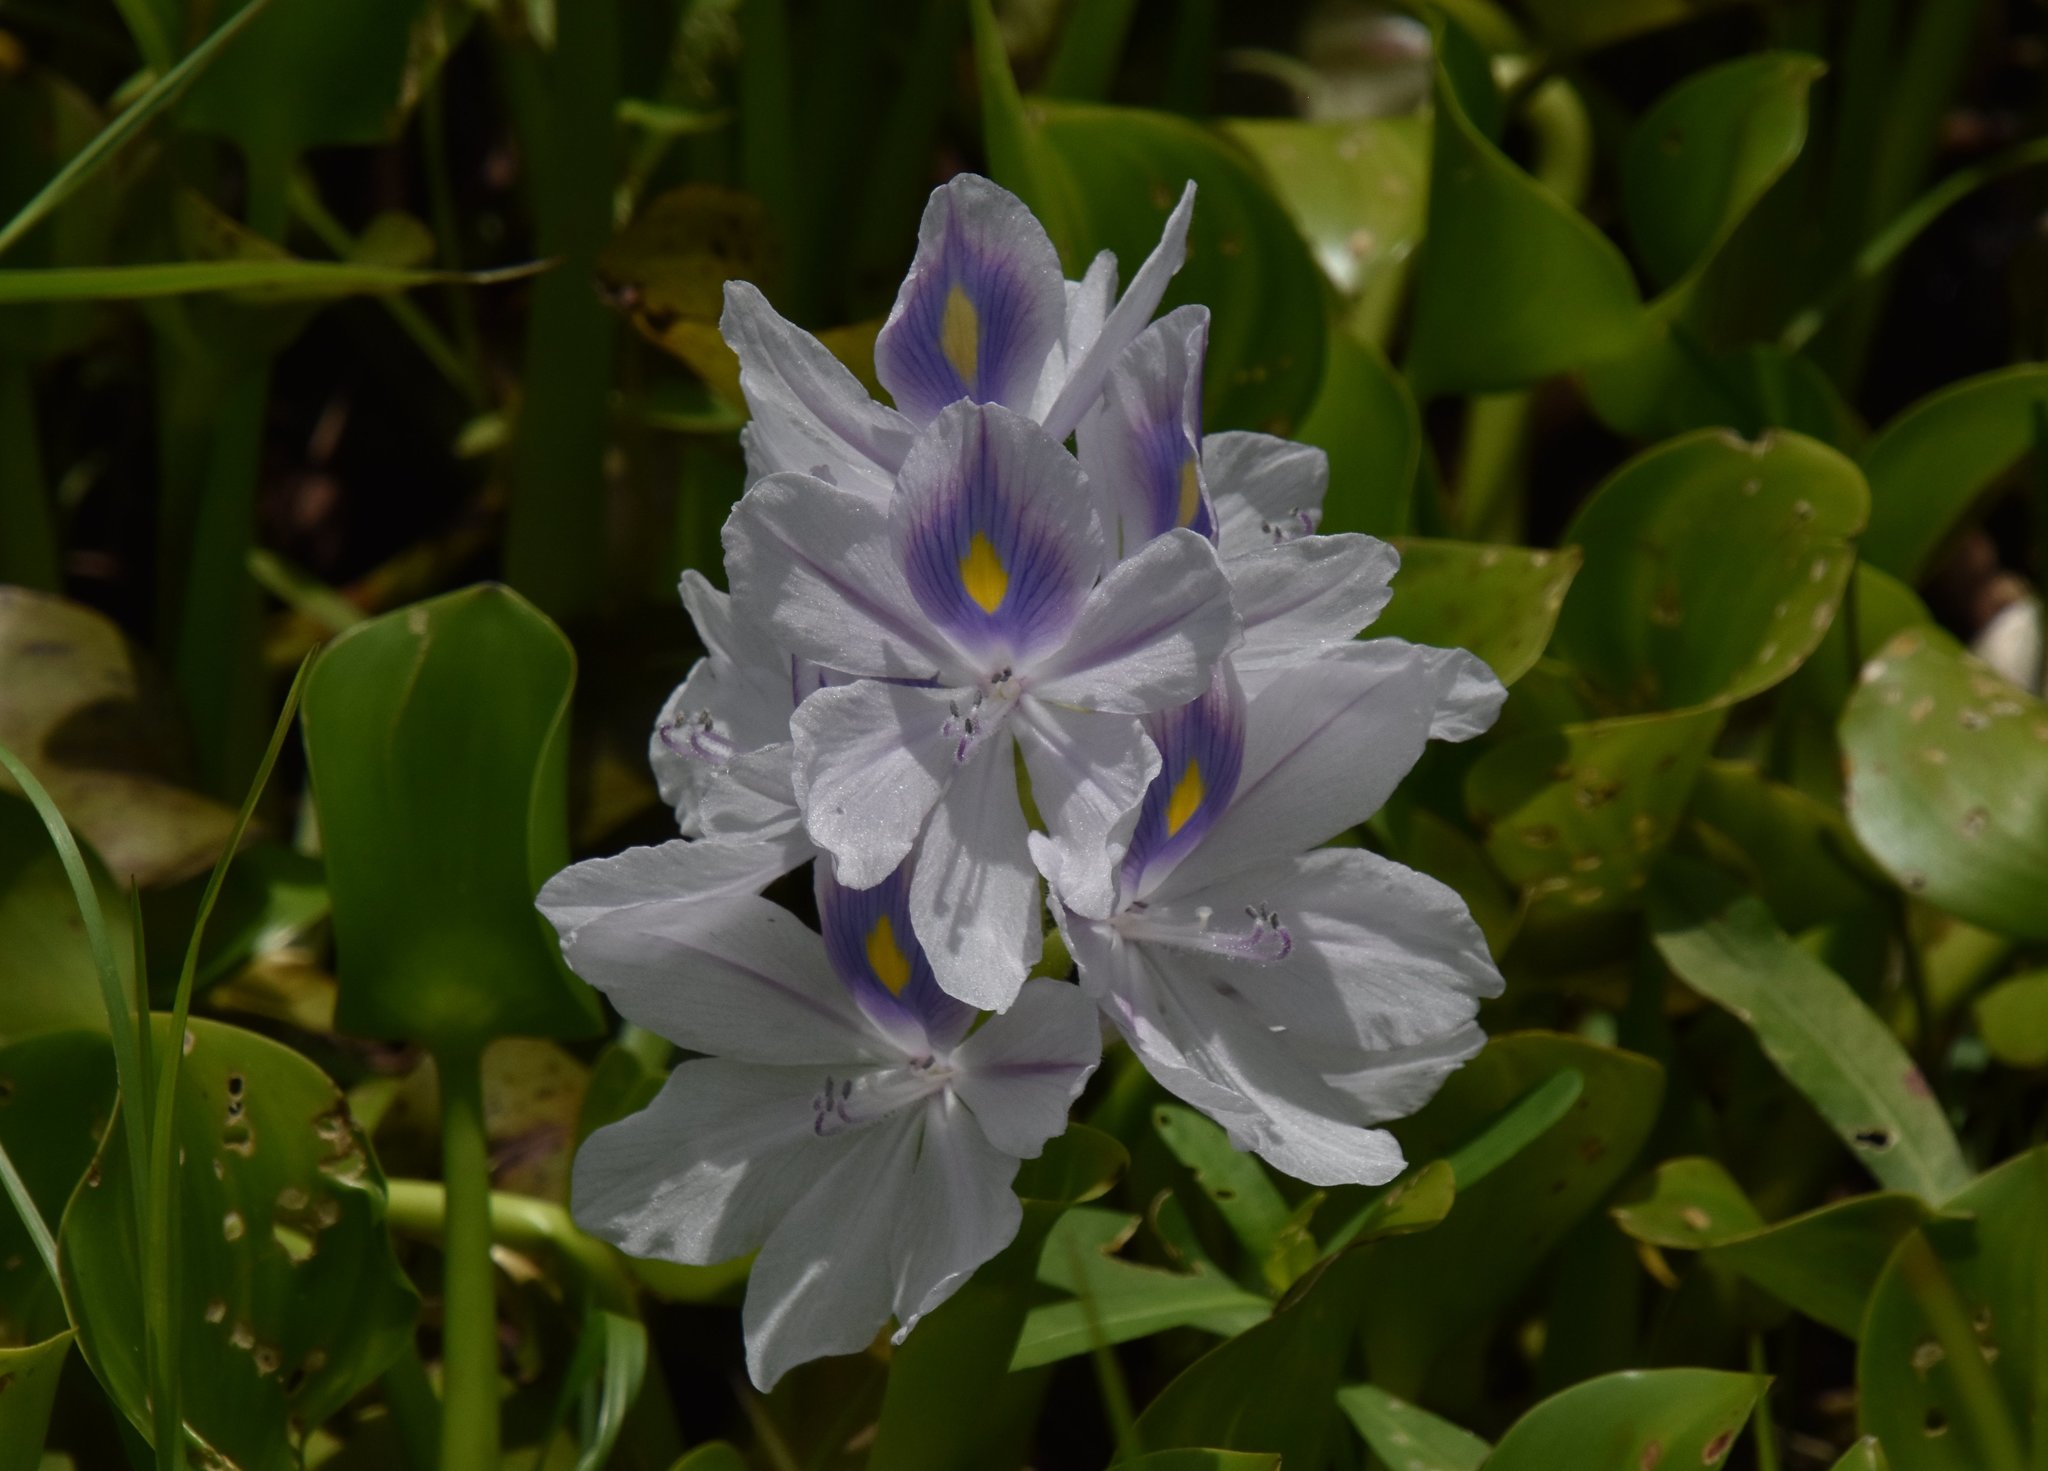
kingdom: Plantae
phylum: Tracheophyta
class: Liliopsida
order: Commelinales
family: Pontederiaceae
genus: Pontederia
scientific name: Pontederia crassipes
